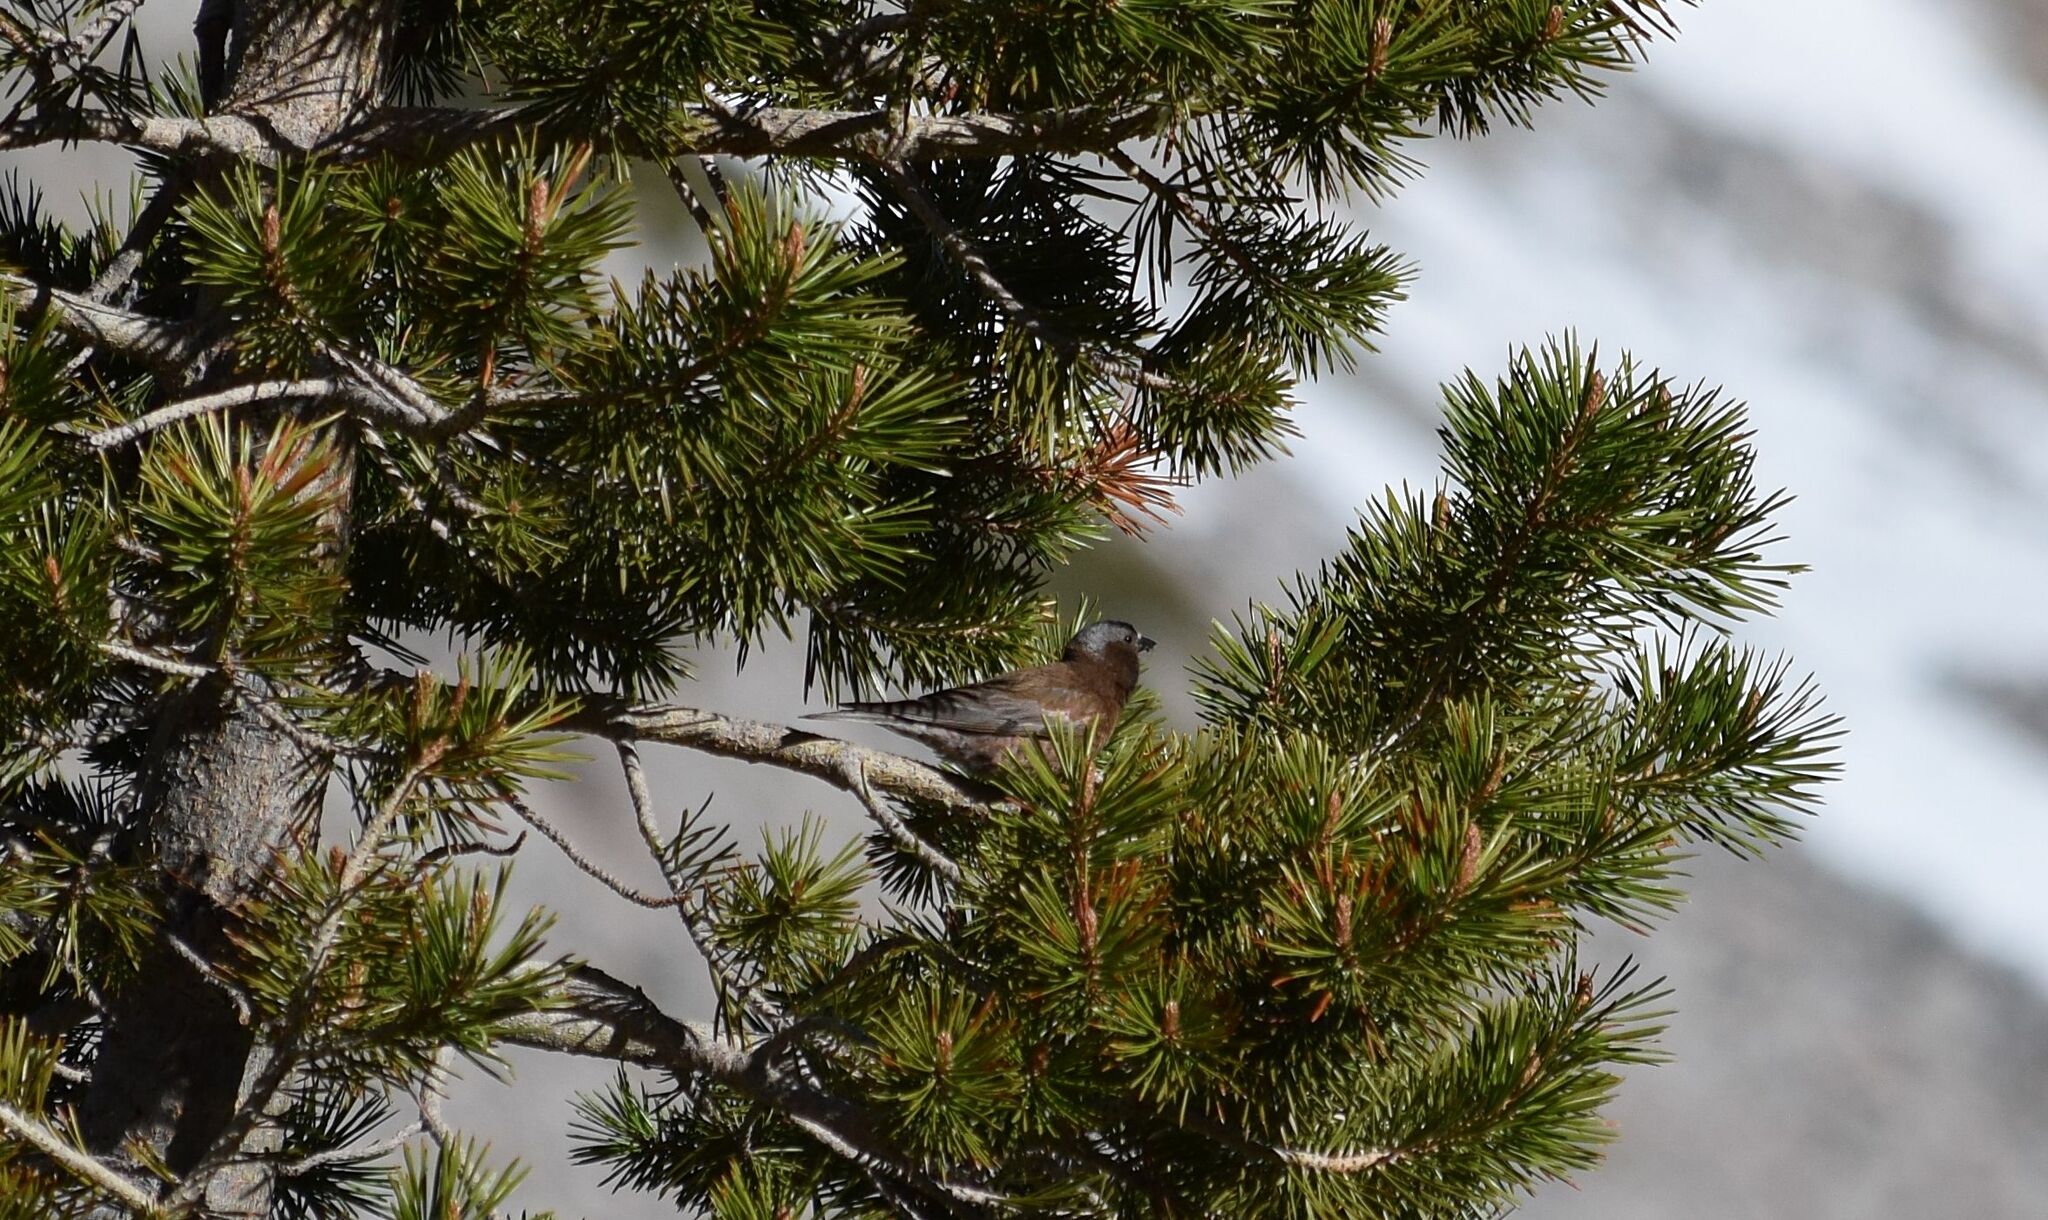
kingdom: Animalia
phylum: Chordata
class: Aves
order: Passeriformes
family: Fringillidae
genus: Leucosticte
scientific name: Leucosticte tephrocotis
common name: Gray-crowned rosy-finch
